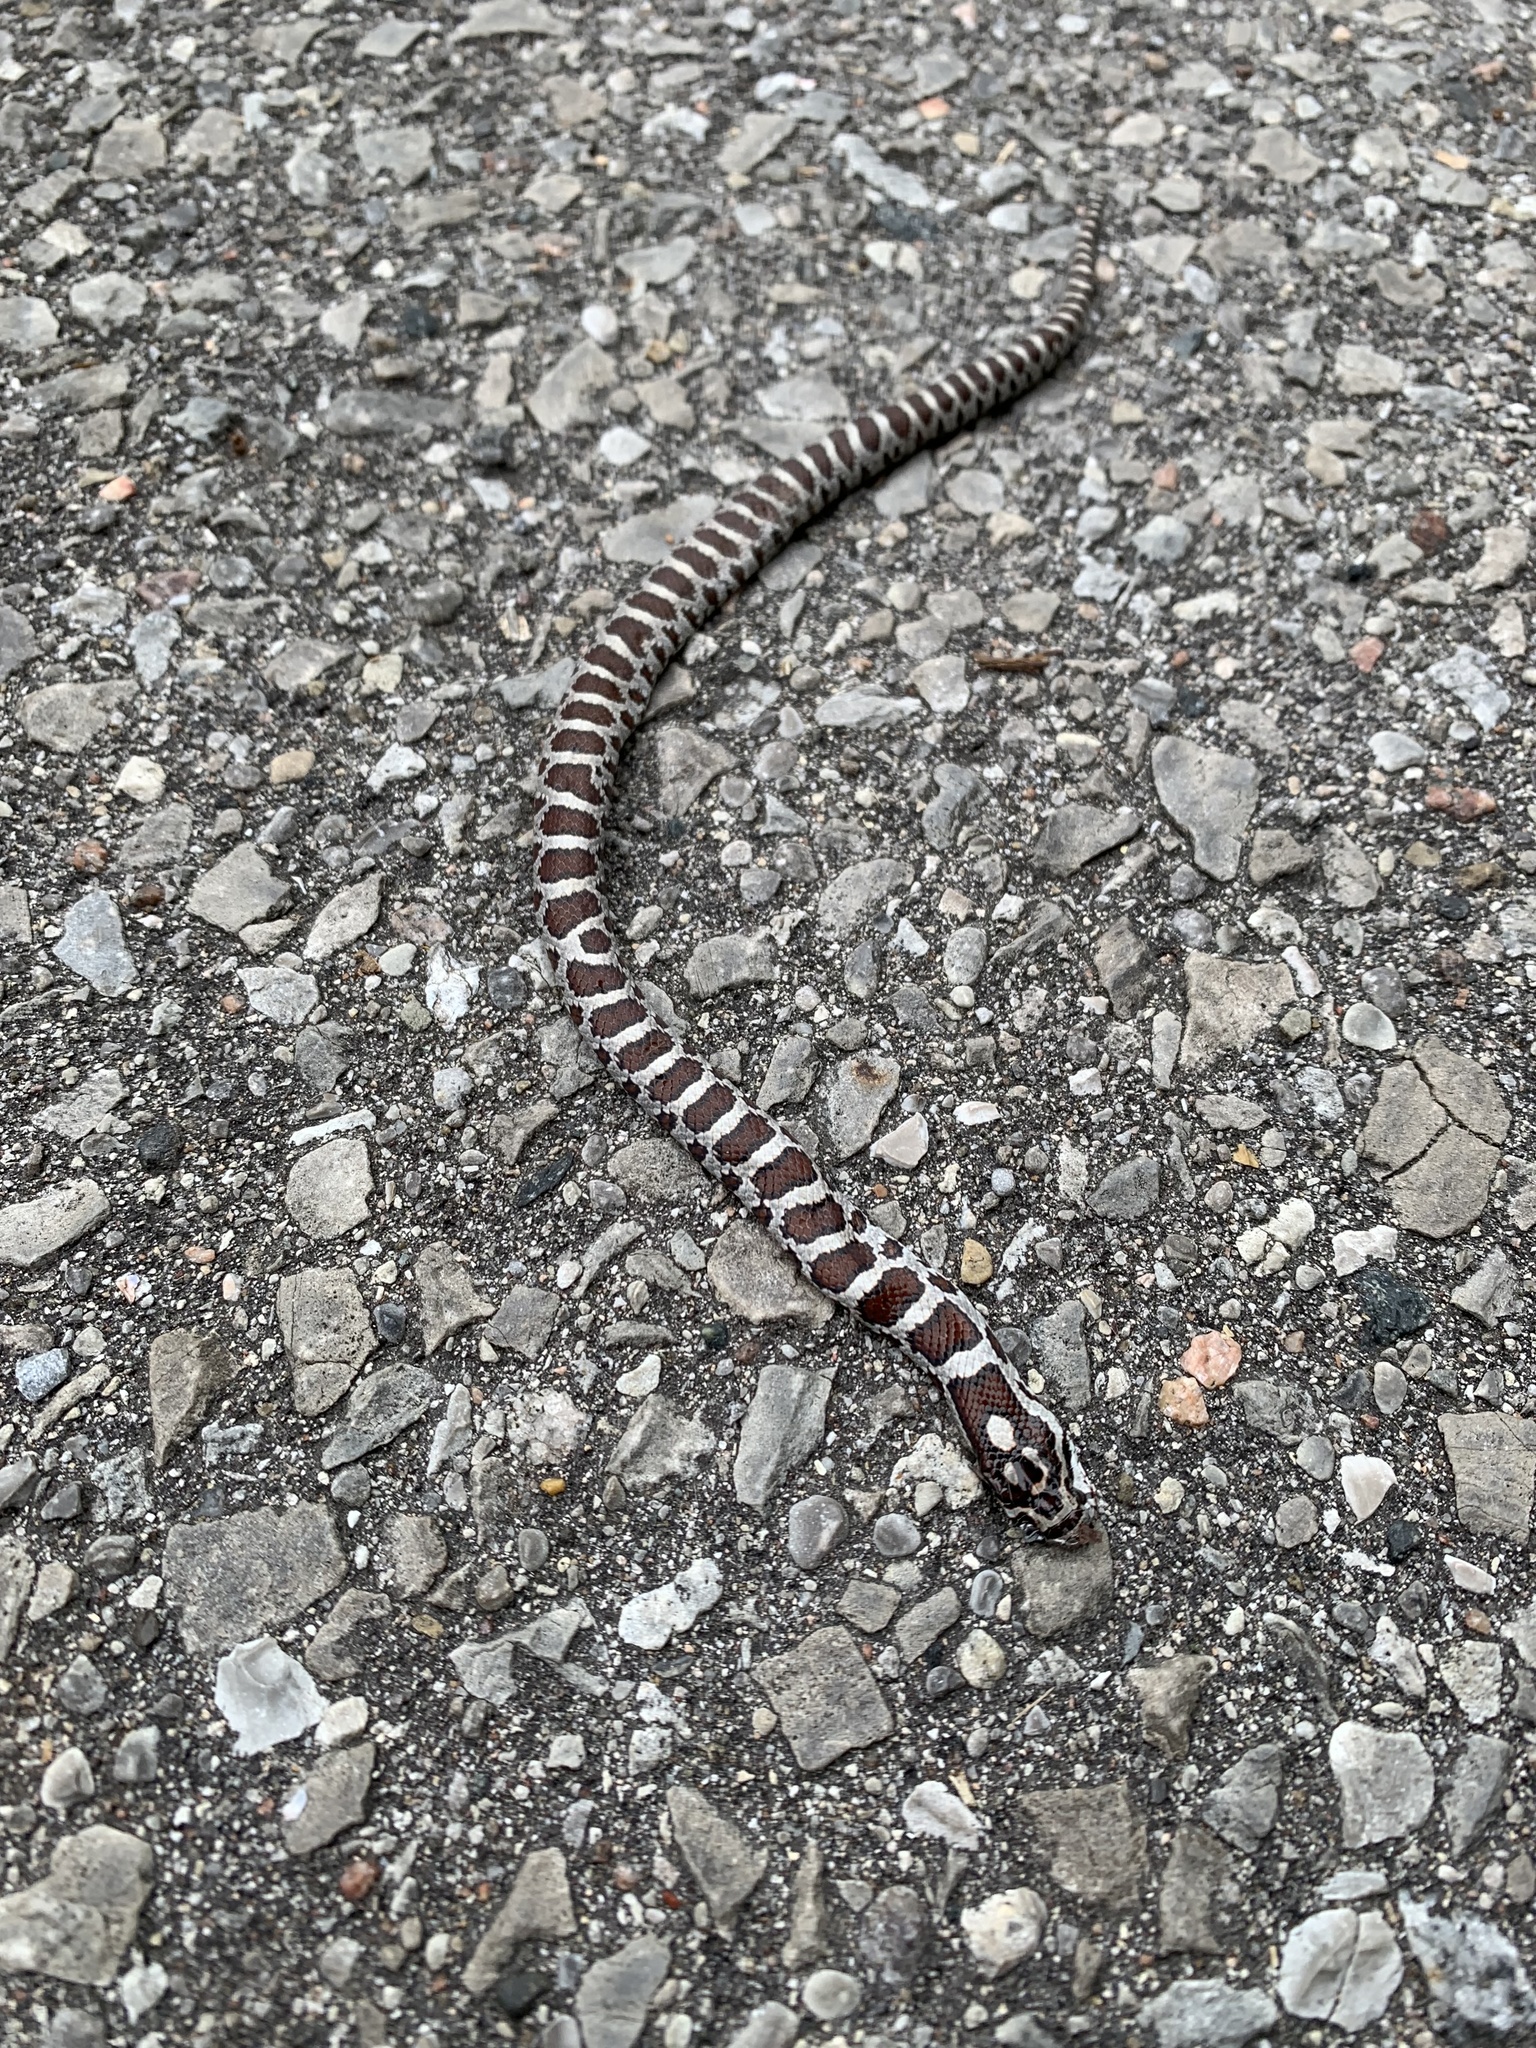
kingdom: Animalia
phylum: Chordata
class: Squamata
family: Colubridae
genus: Lampropeltis
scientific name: Lampropeltis triangulum
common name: Eastern milksnake
